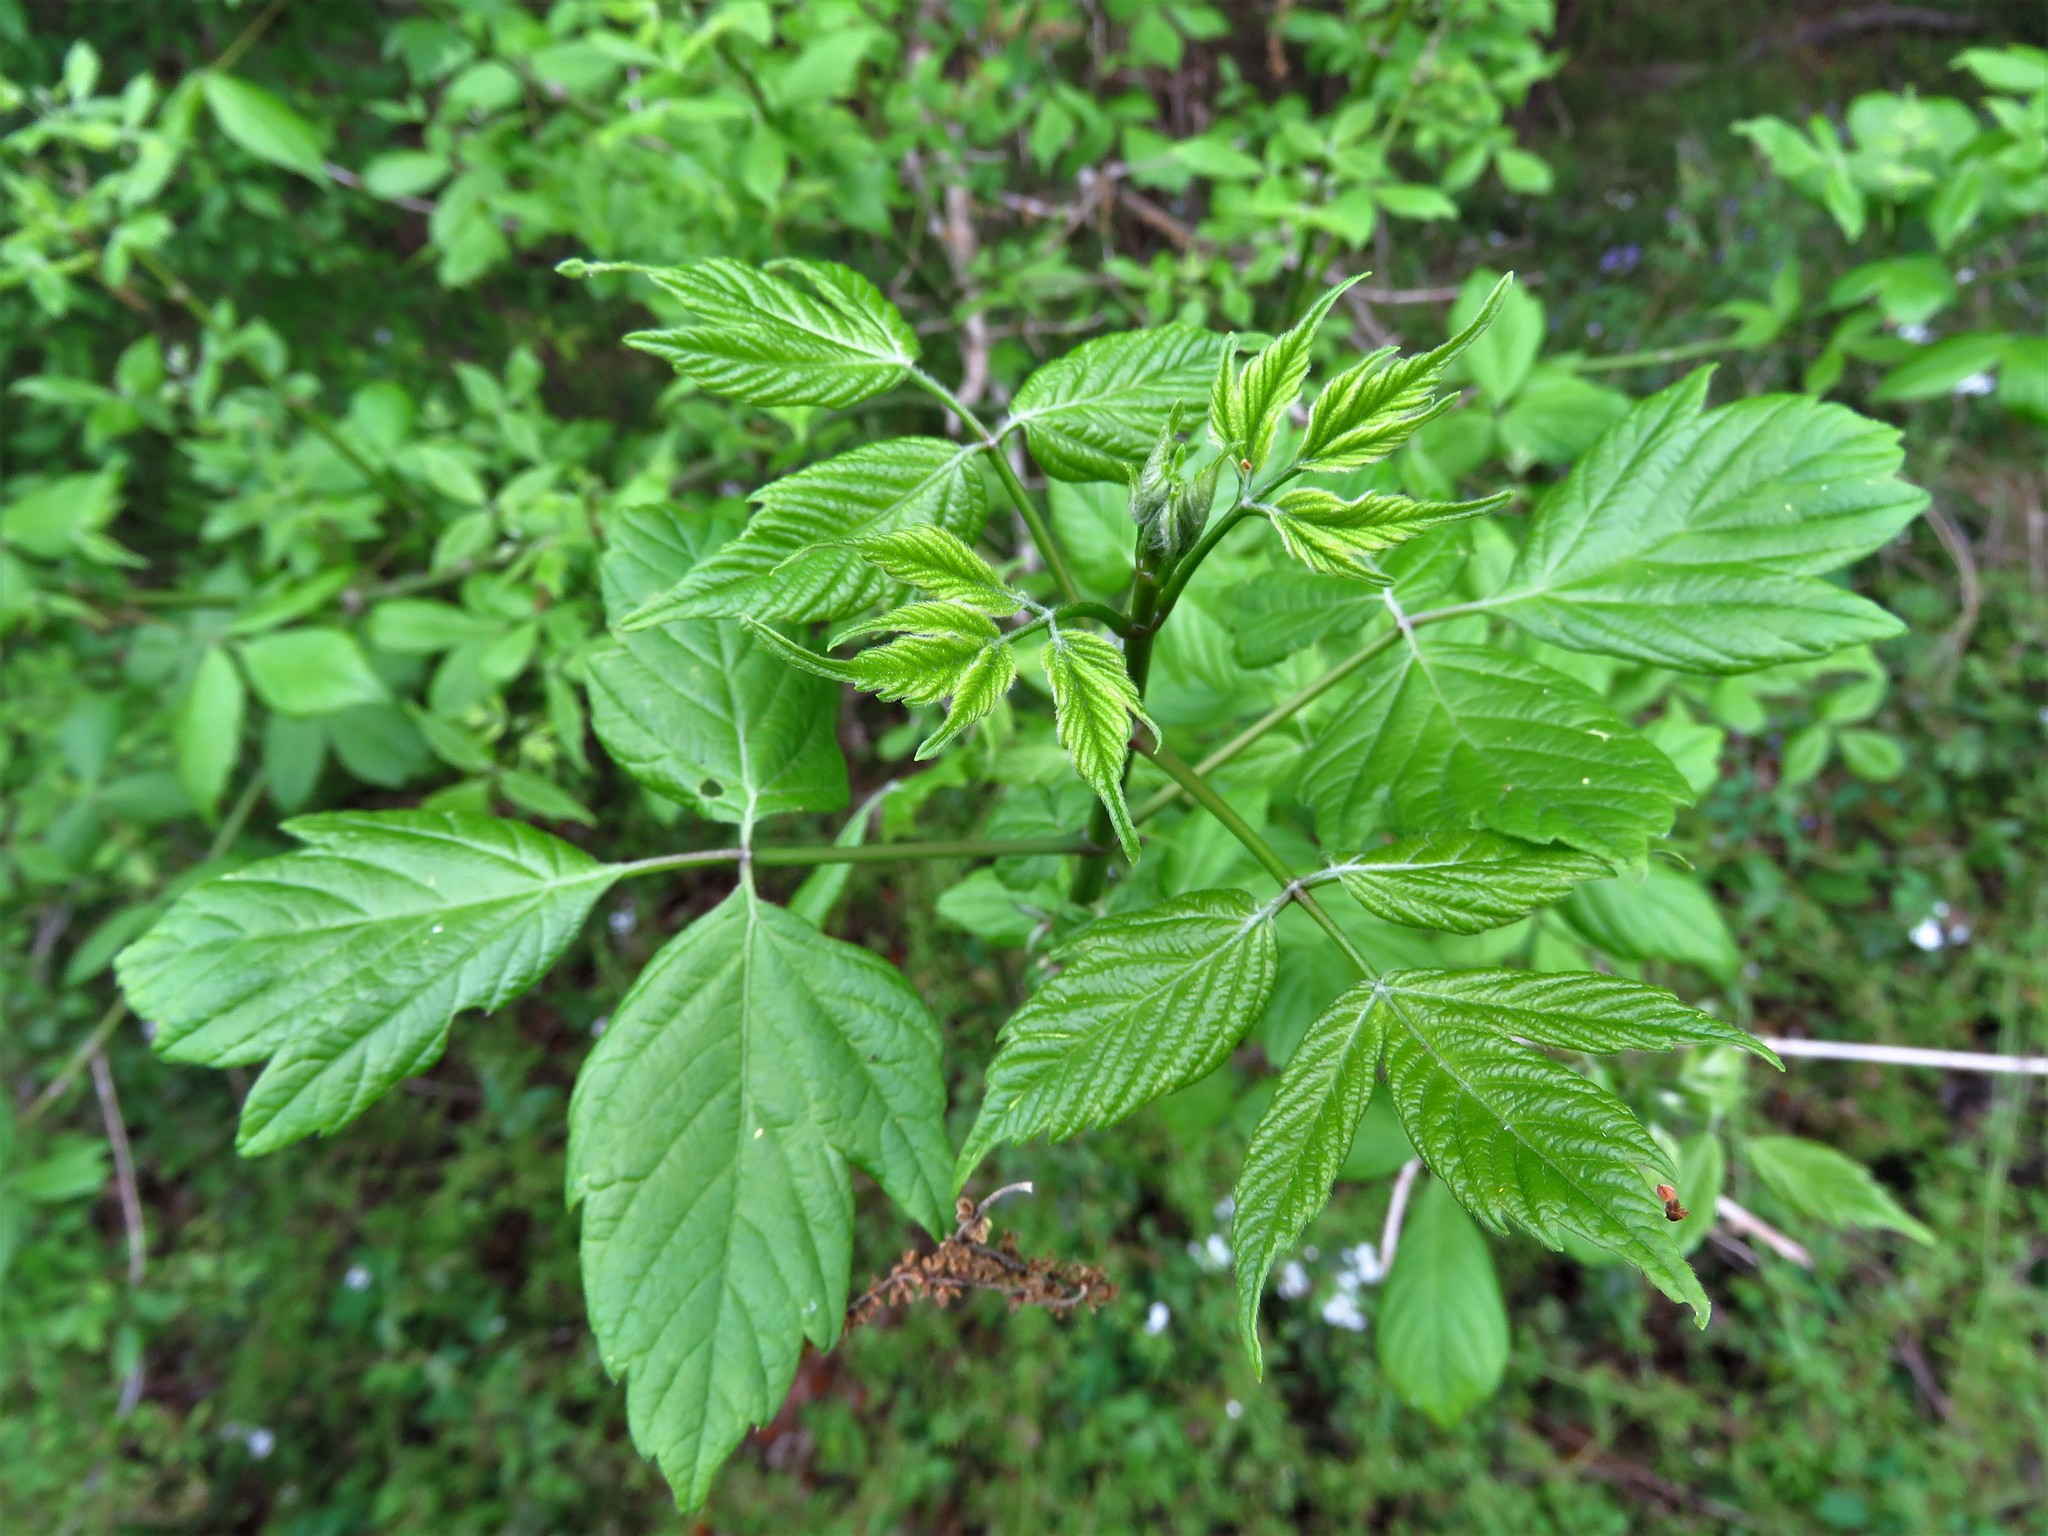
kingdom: Plantae
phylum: Tracheophyta
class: Magnoliopsida
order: Sapindales
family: Sapindaceae
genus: Acer
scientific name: Acer negundo
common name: Ashleaf maple
